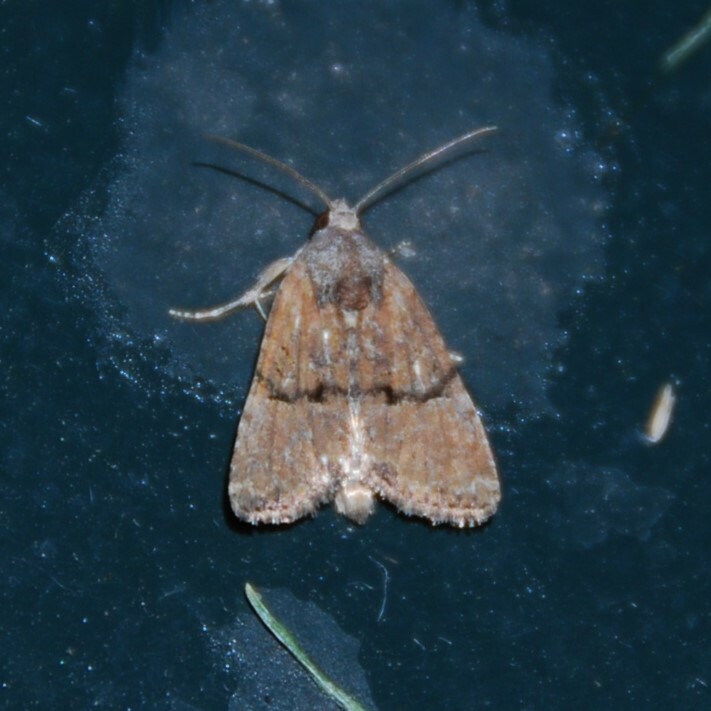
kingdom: Animalia
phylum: Arthropoda
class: Insecta
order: Lepidoptera
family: Noctuidae
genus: Mesoligia
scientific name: Mesoligia furuncula
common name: Cloaked minor
